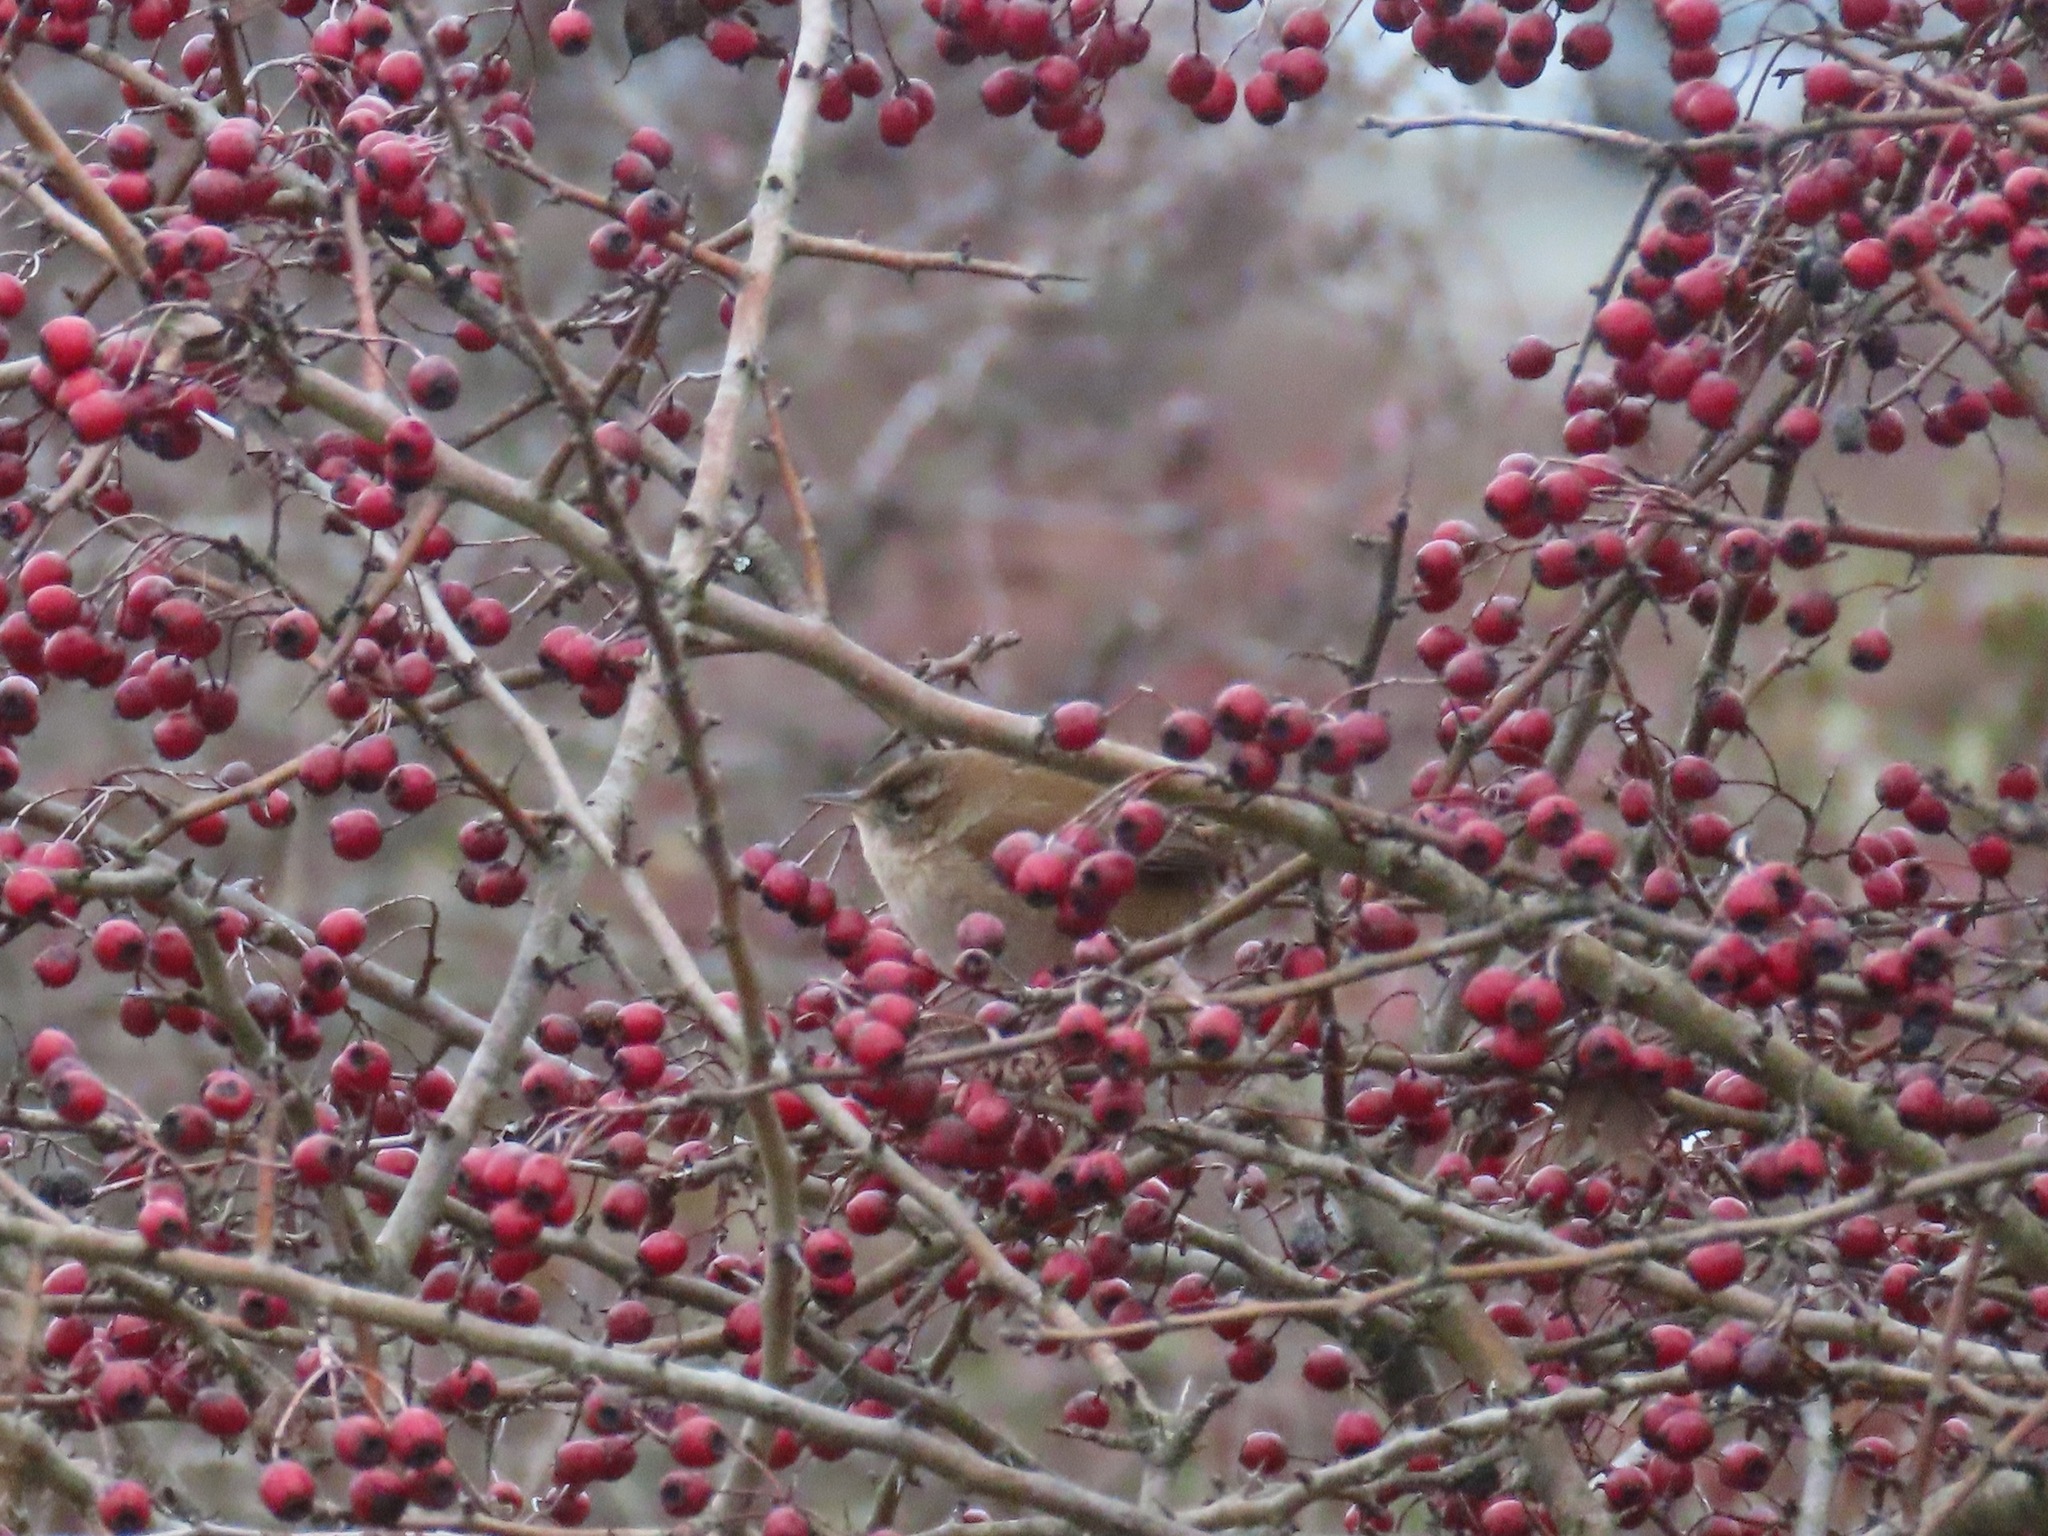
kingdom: Animalia
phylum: Chordata
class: Aves
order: Passeriformes
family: Troglodytidae
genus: Cistothorus
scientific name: Cistothorus palustris
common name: Marsh wren
